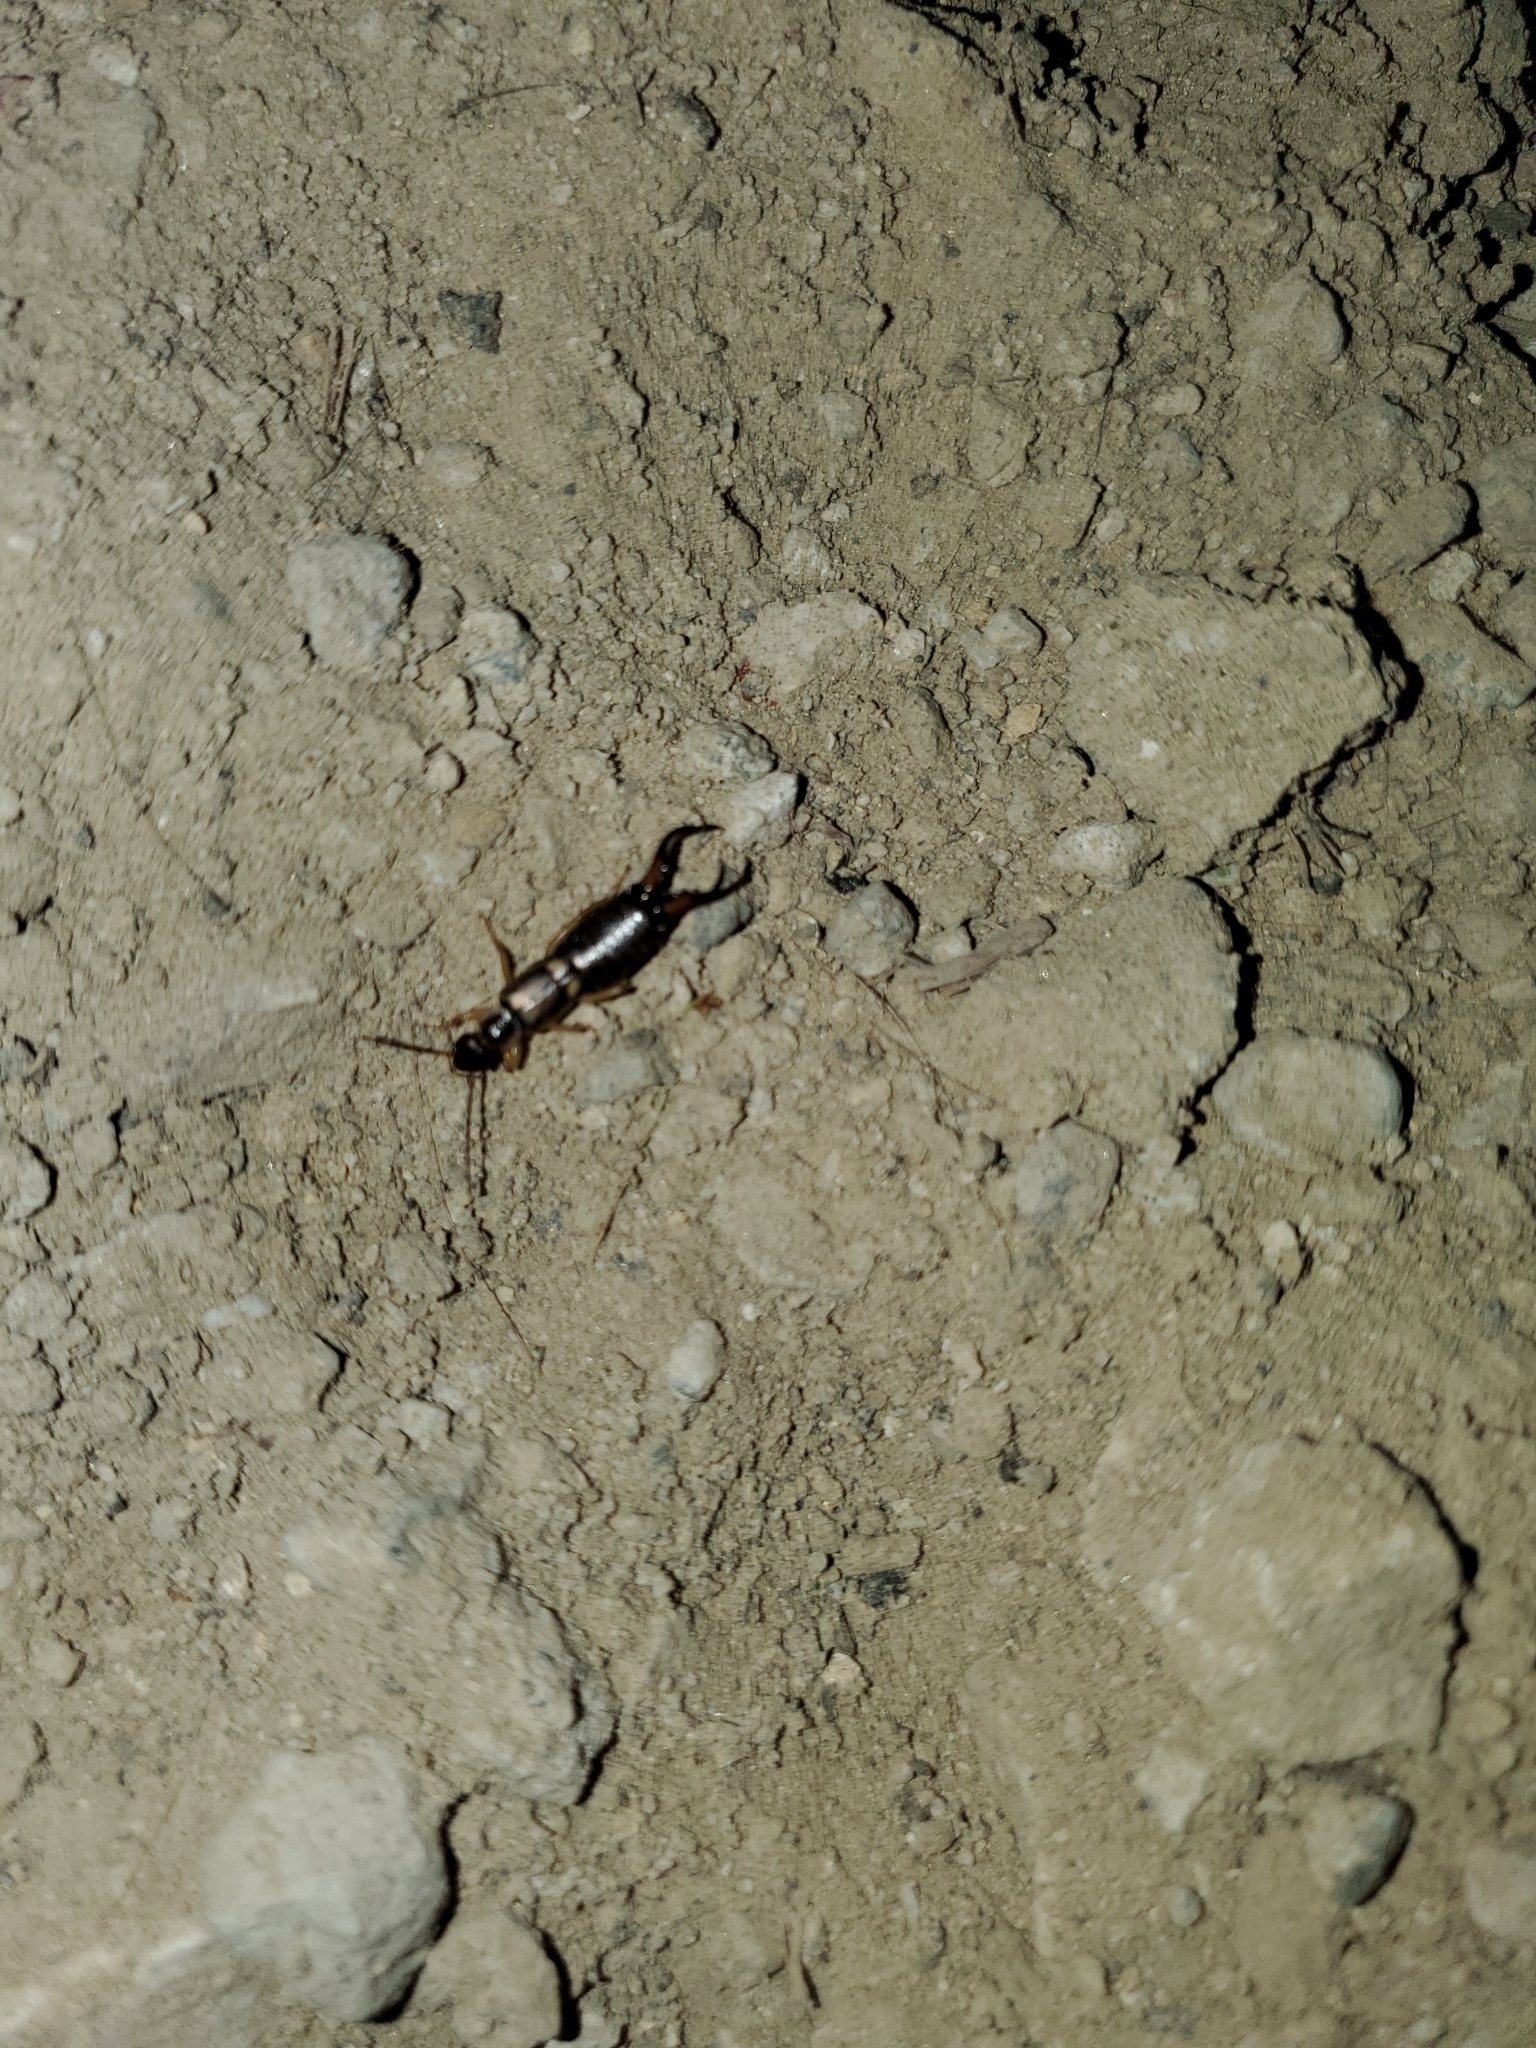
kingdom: Animalia
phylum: Arthropoda
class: Insecta
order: Dermaptera
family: Forficulidae
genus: Forficula
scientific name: Forficula
